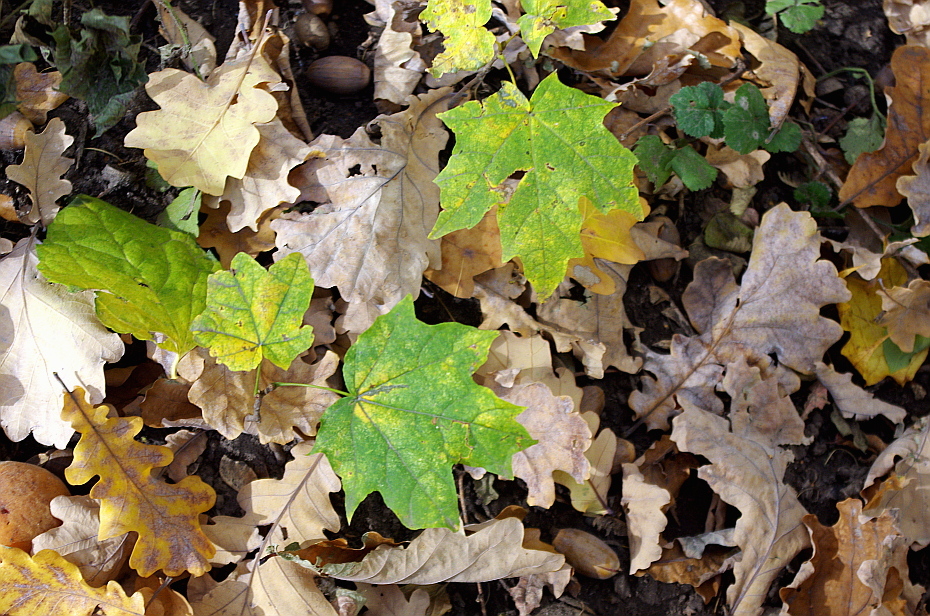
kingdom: Plantae
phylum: Tracheophyta
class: Magnoliopsida
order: Sapindales
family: Sapindaceae
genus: Acer
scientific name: Acer platanoides
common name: Norway maple
